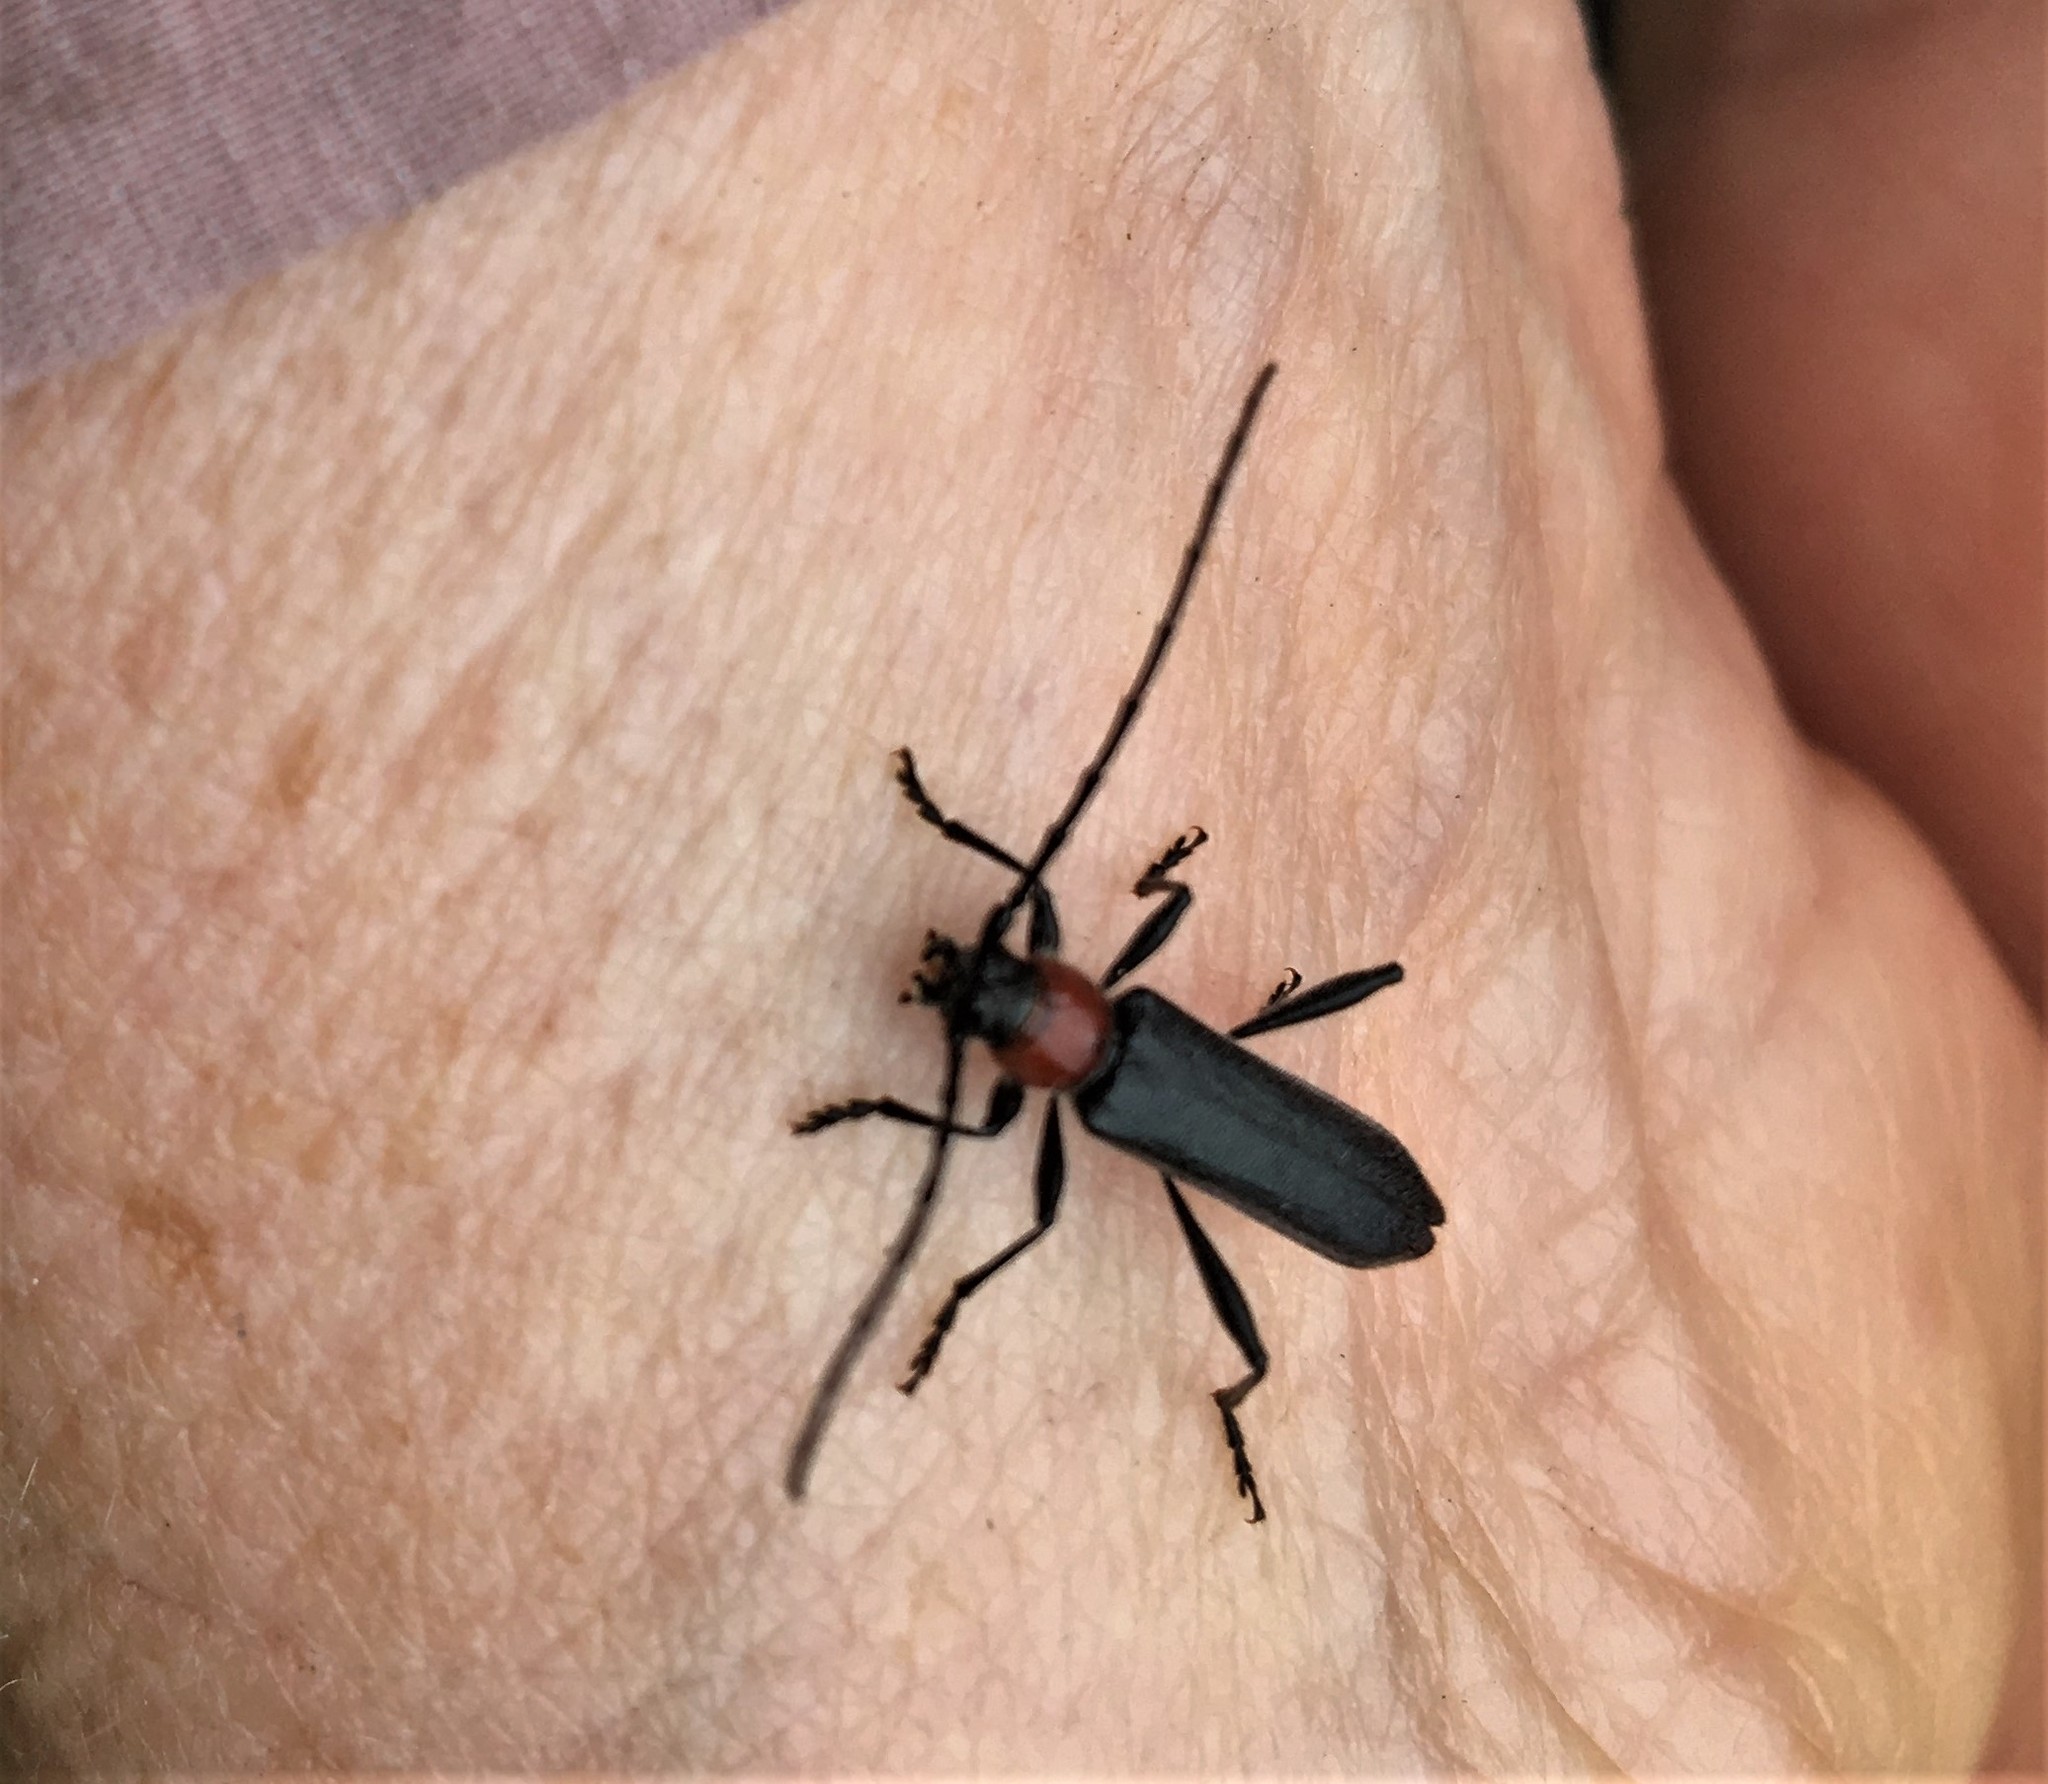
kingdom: Animalia
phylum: Arthropoda
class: Insecta
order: Coleoptera
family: Cerambycidae
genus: Pronocera
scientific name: Pronocera collaris
